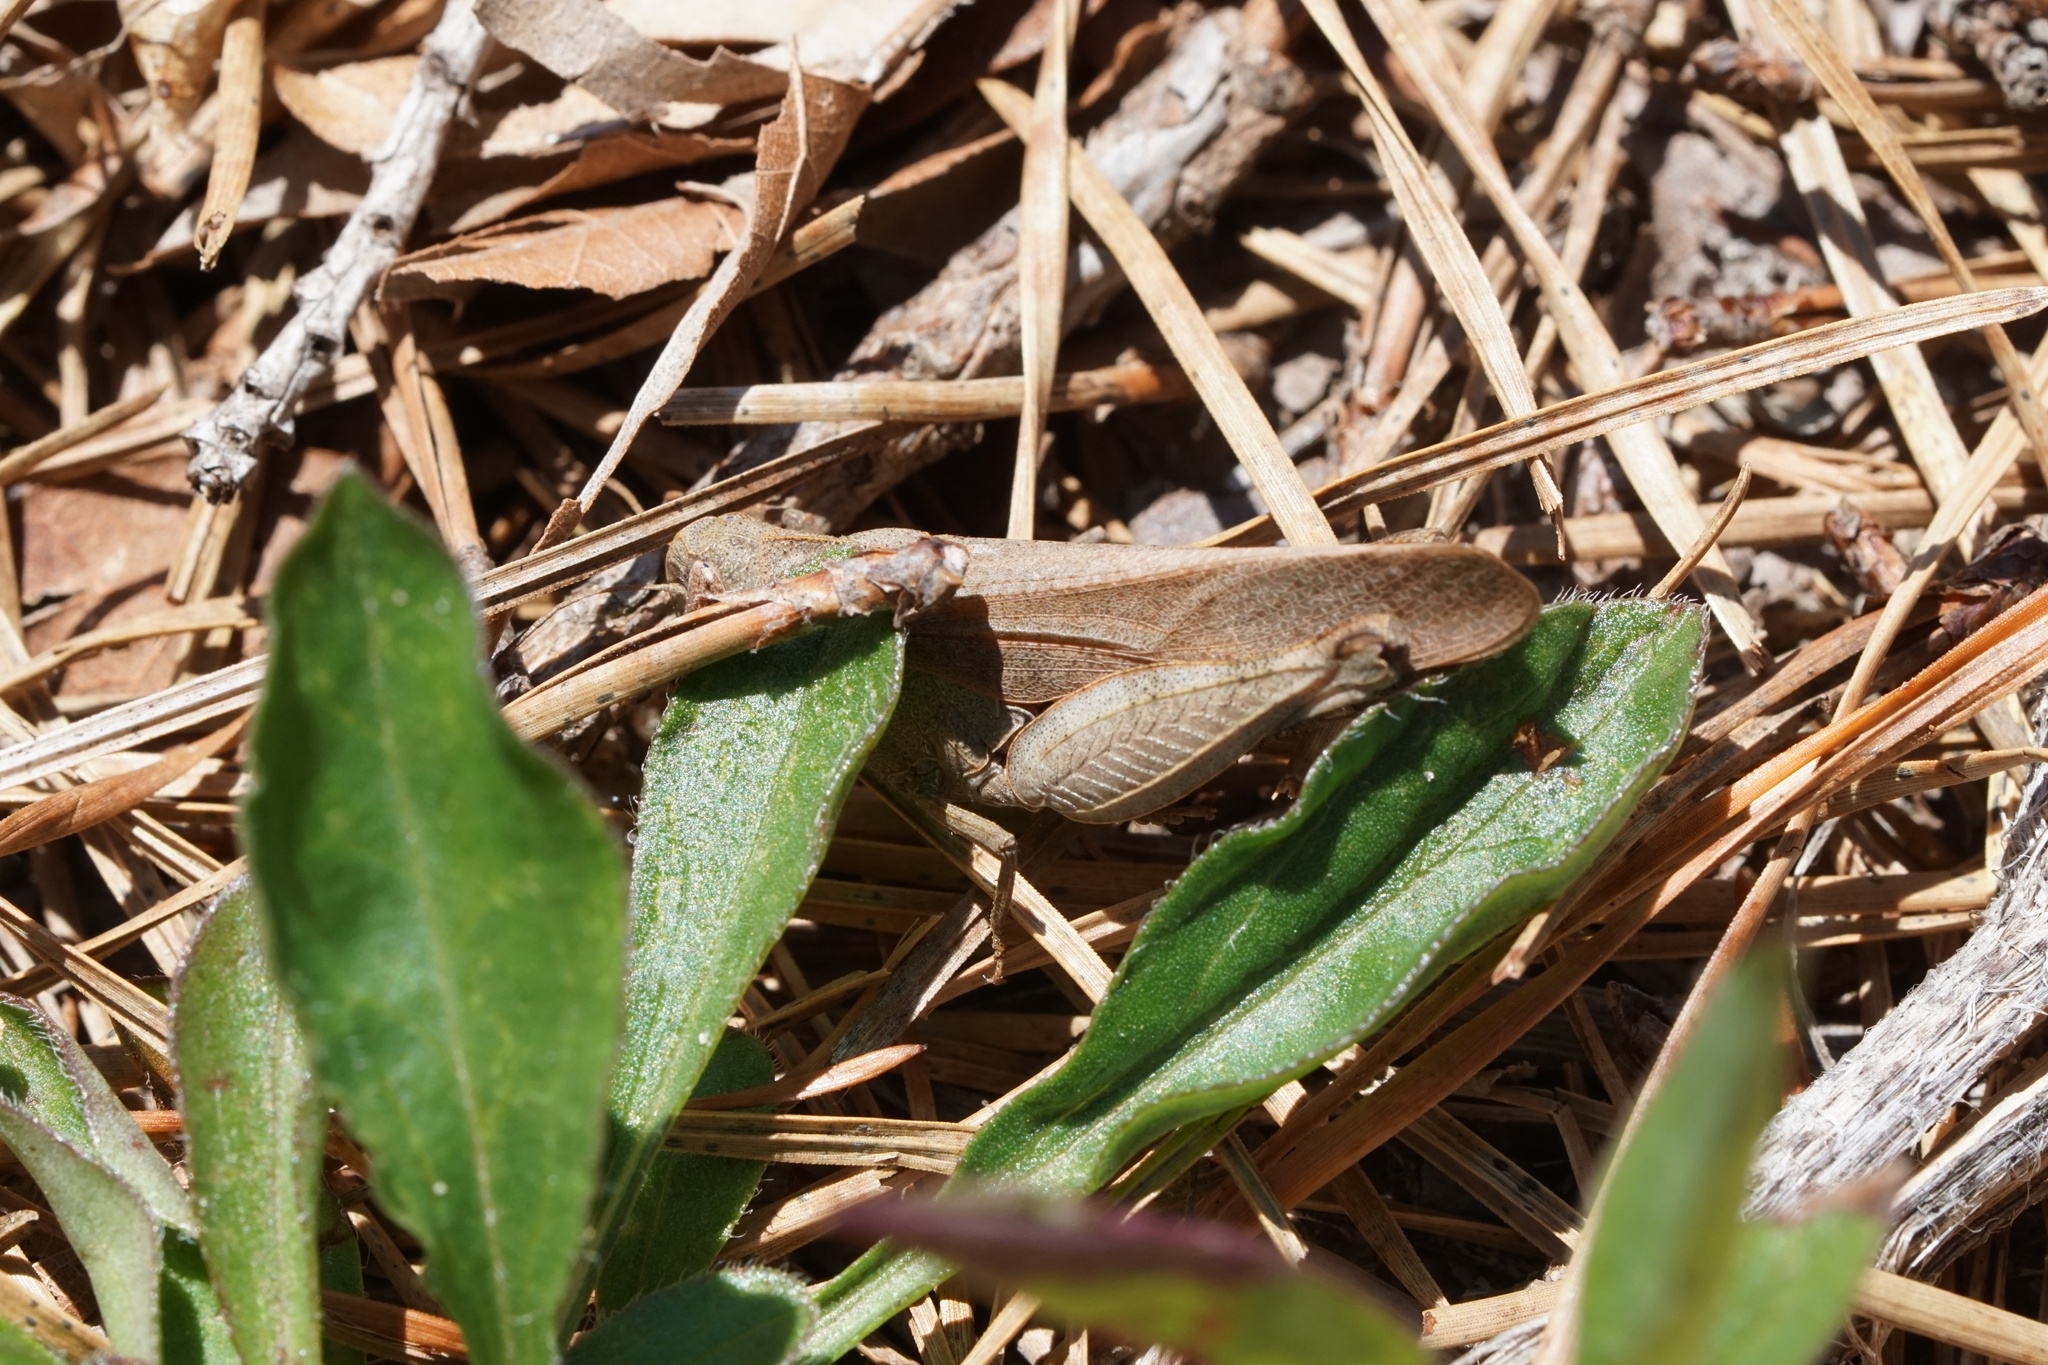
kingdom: Animalia
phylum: Arthropoda
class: Insecta
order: Orthoptera
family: Acrididae
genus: Arphia
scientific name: Arphia sulphurea
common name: Spring yellow-winged locust
